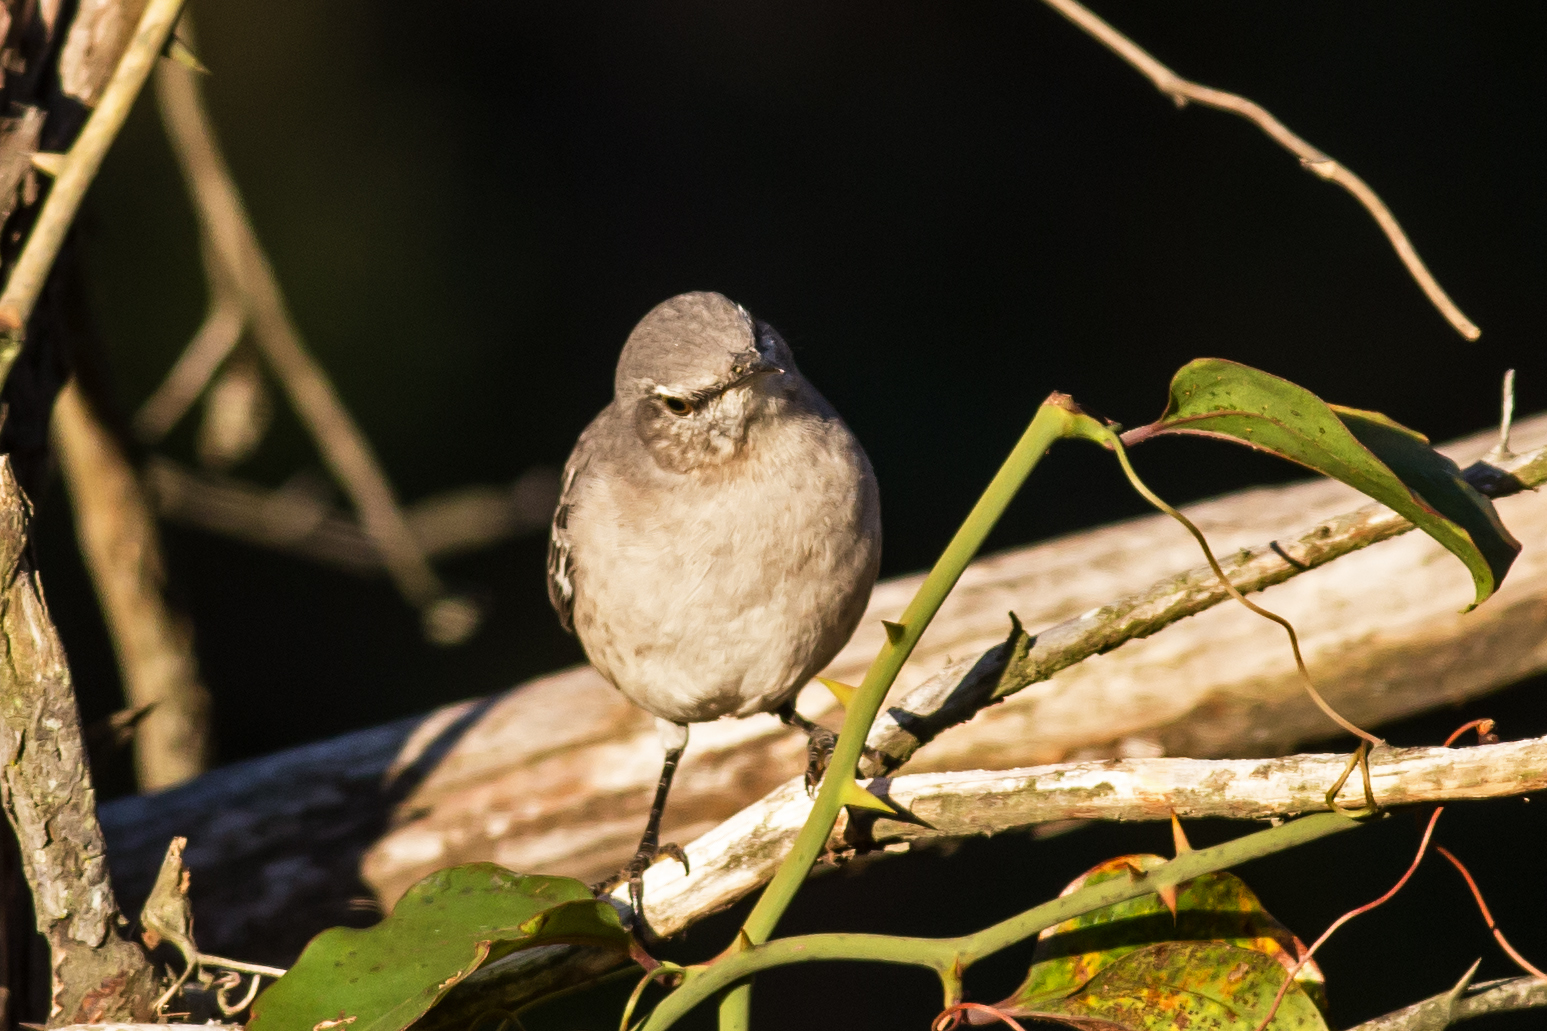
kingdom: Animalia
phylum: Chordata
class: Aves
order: Passeriformes
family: Mimidae
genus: Mimus
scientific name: Mimus polyglottos
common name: Northern mockingbird
